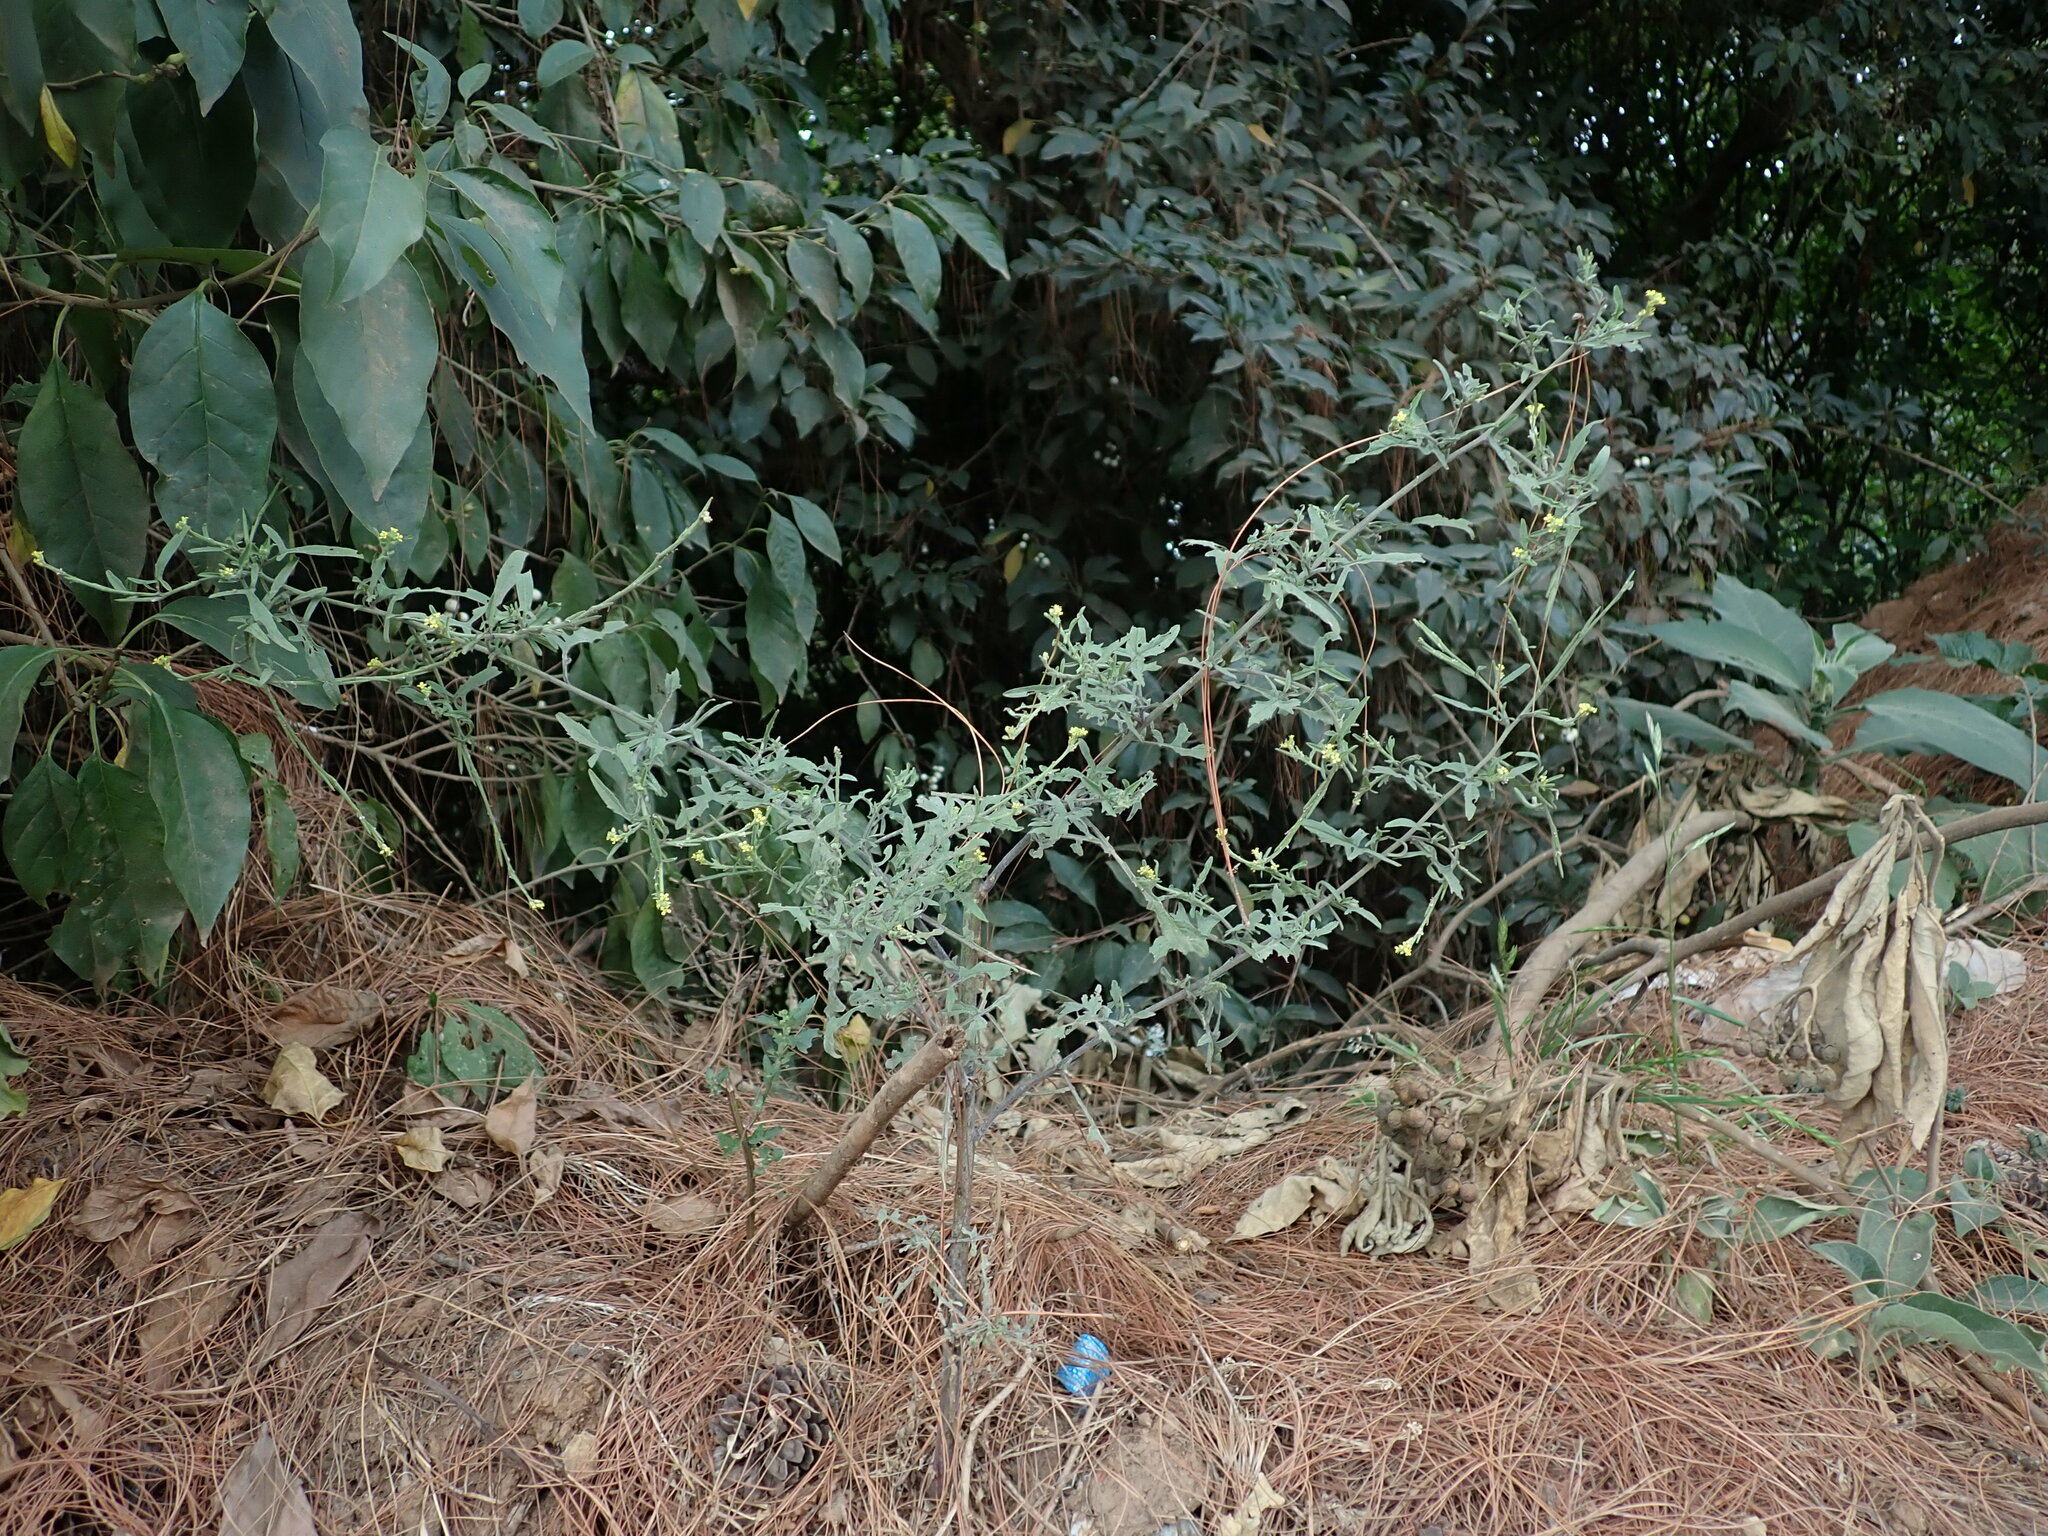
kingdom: Plantae
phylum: Tracheophyta
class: Magnoliopsida
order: Brassicales
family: Brassicaceae
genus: Sisymbrium
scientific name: Sisymbrium officinale
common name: Hedge mustard
